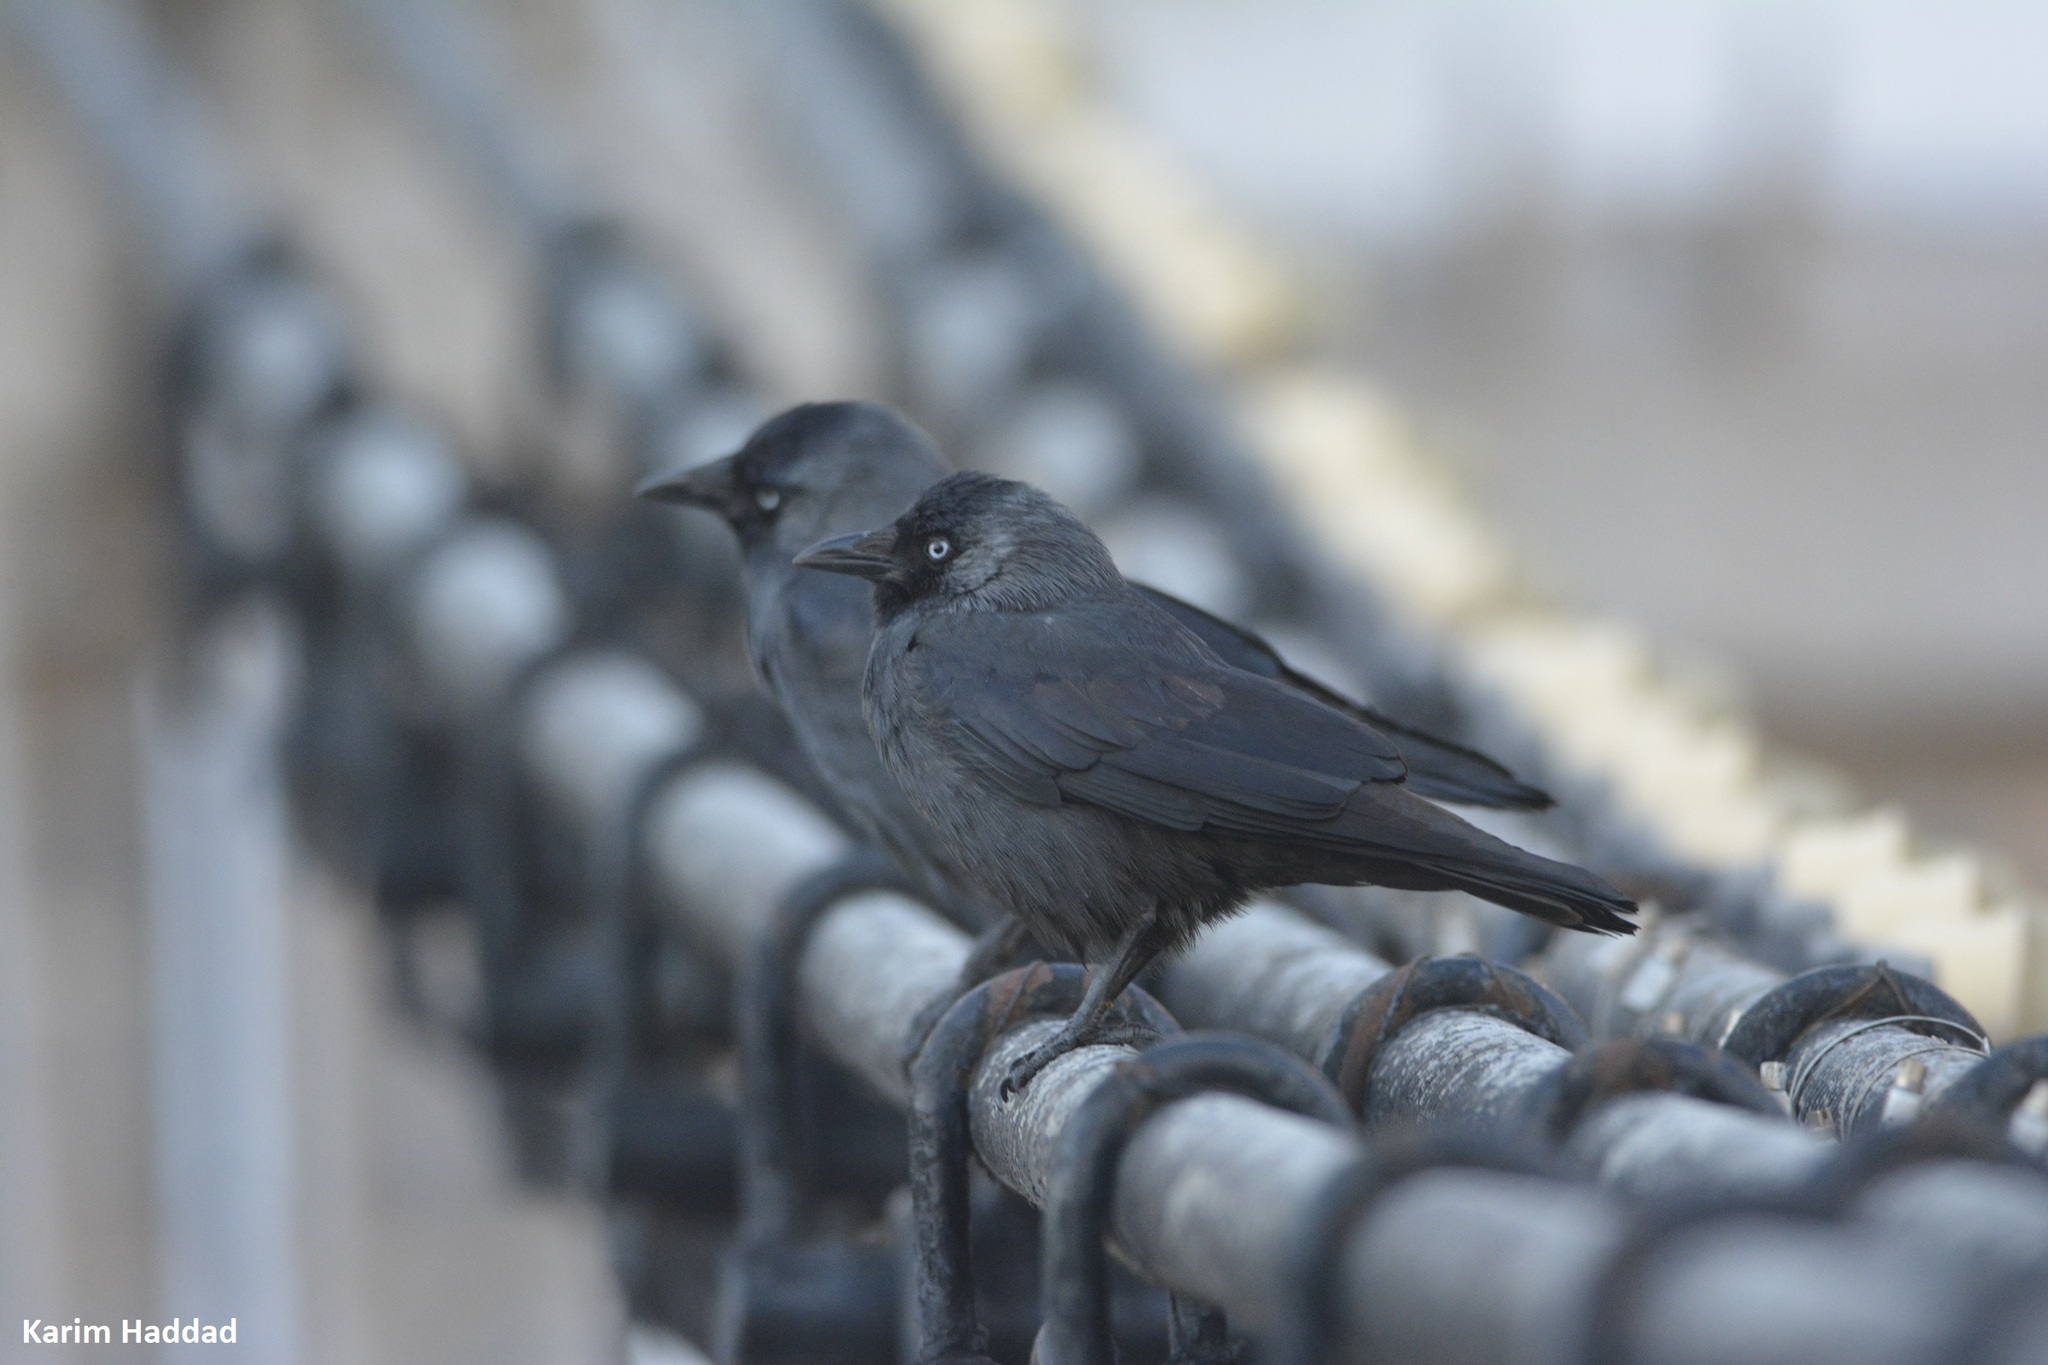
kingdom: Animalia
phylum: Chordata
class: Aves
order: Passeriformes
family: Corvidae
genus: Coloeus
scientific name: Coloeus monedula
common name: Western jackdaw
